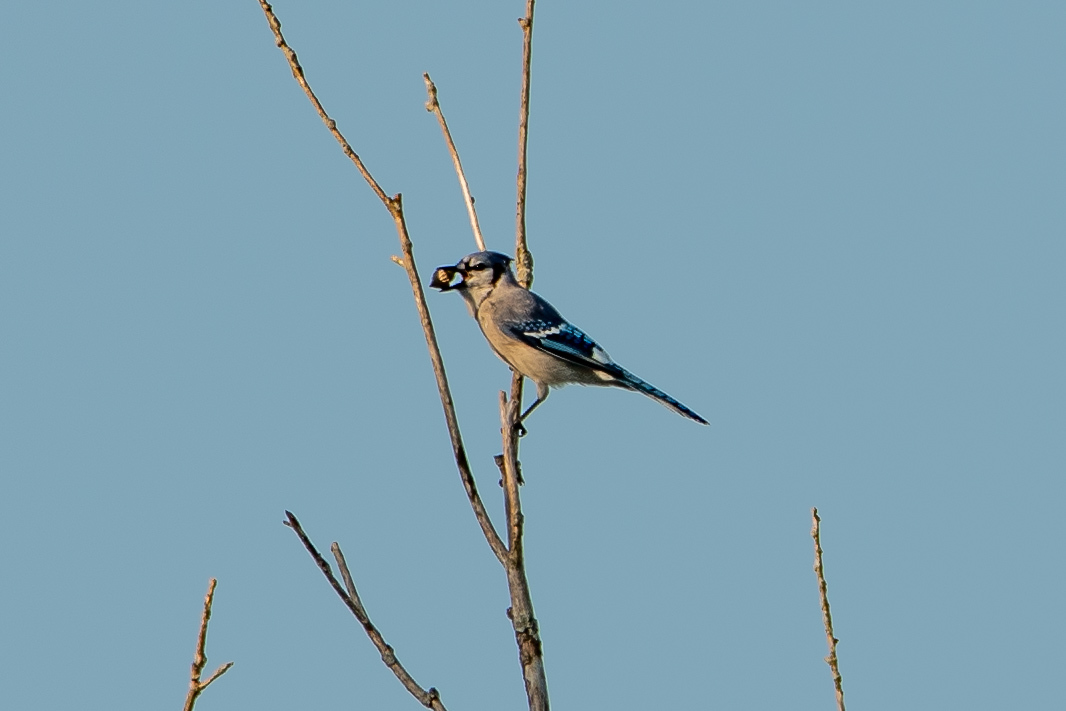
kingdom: Animalia
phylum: Chordata
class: Aves
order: Passeriformes
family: Corvidae
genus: Cyanocitta
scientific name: Cyanocitta cristata
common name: Blue jay
